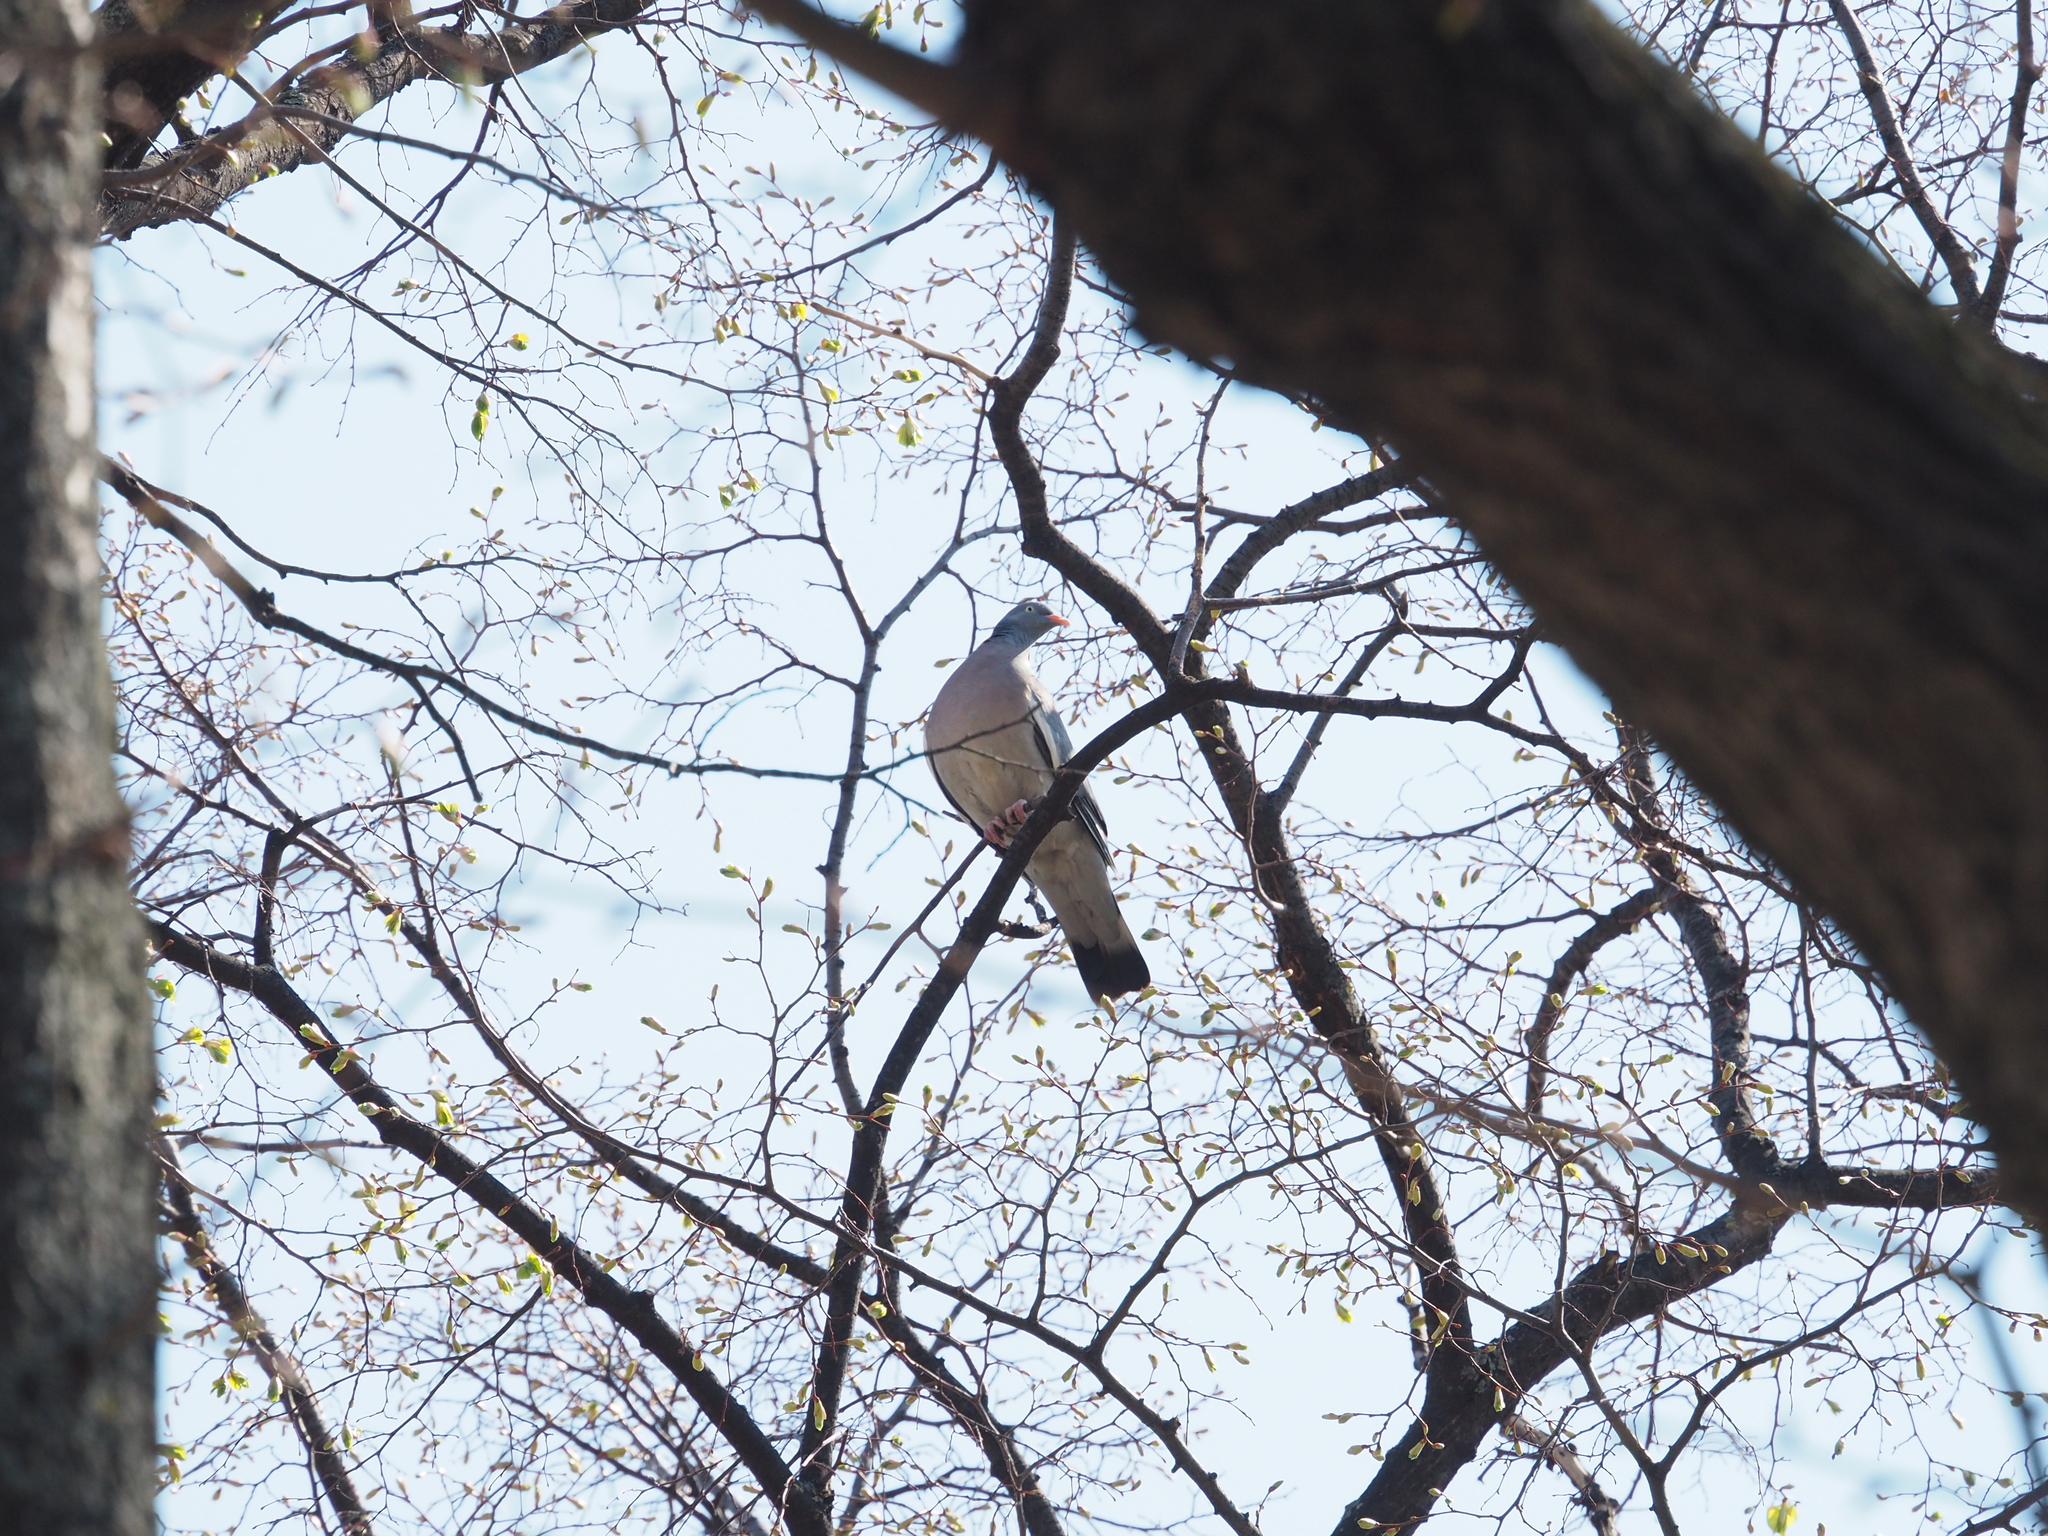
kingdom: Animalia
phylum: Chordata
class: Aves
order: Columbiformes
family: Columbidae
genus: Columba
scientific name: Columba palumbus
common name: Common wood pigeon
